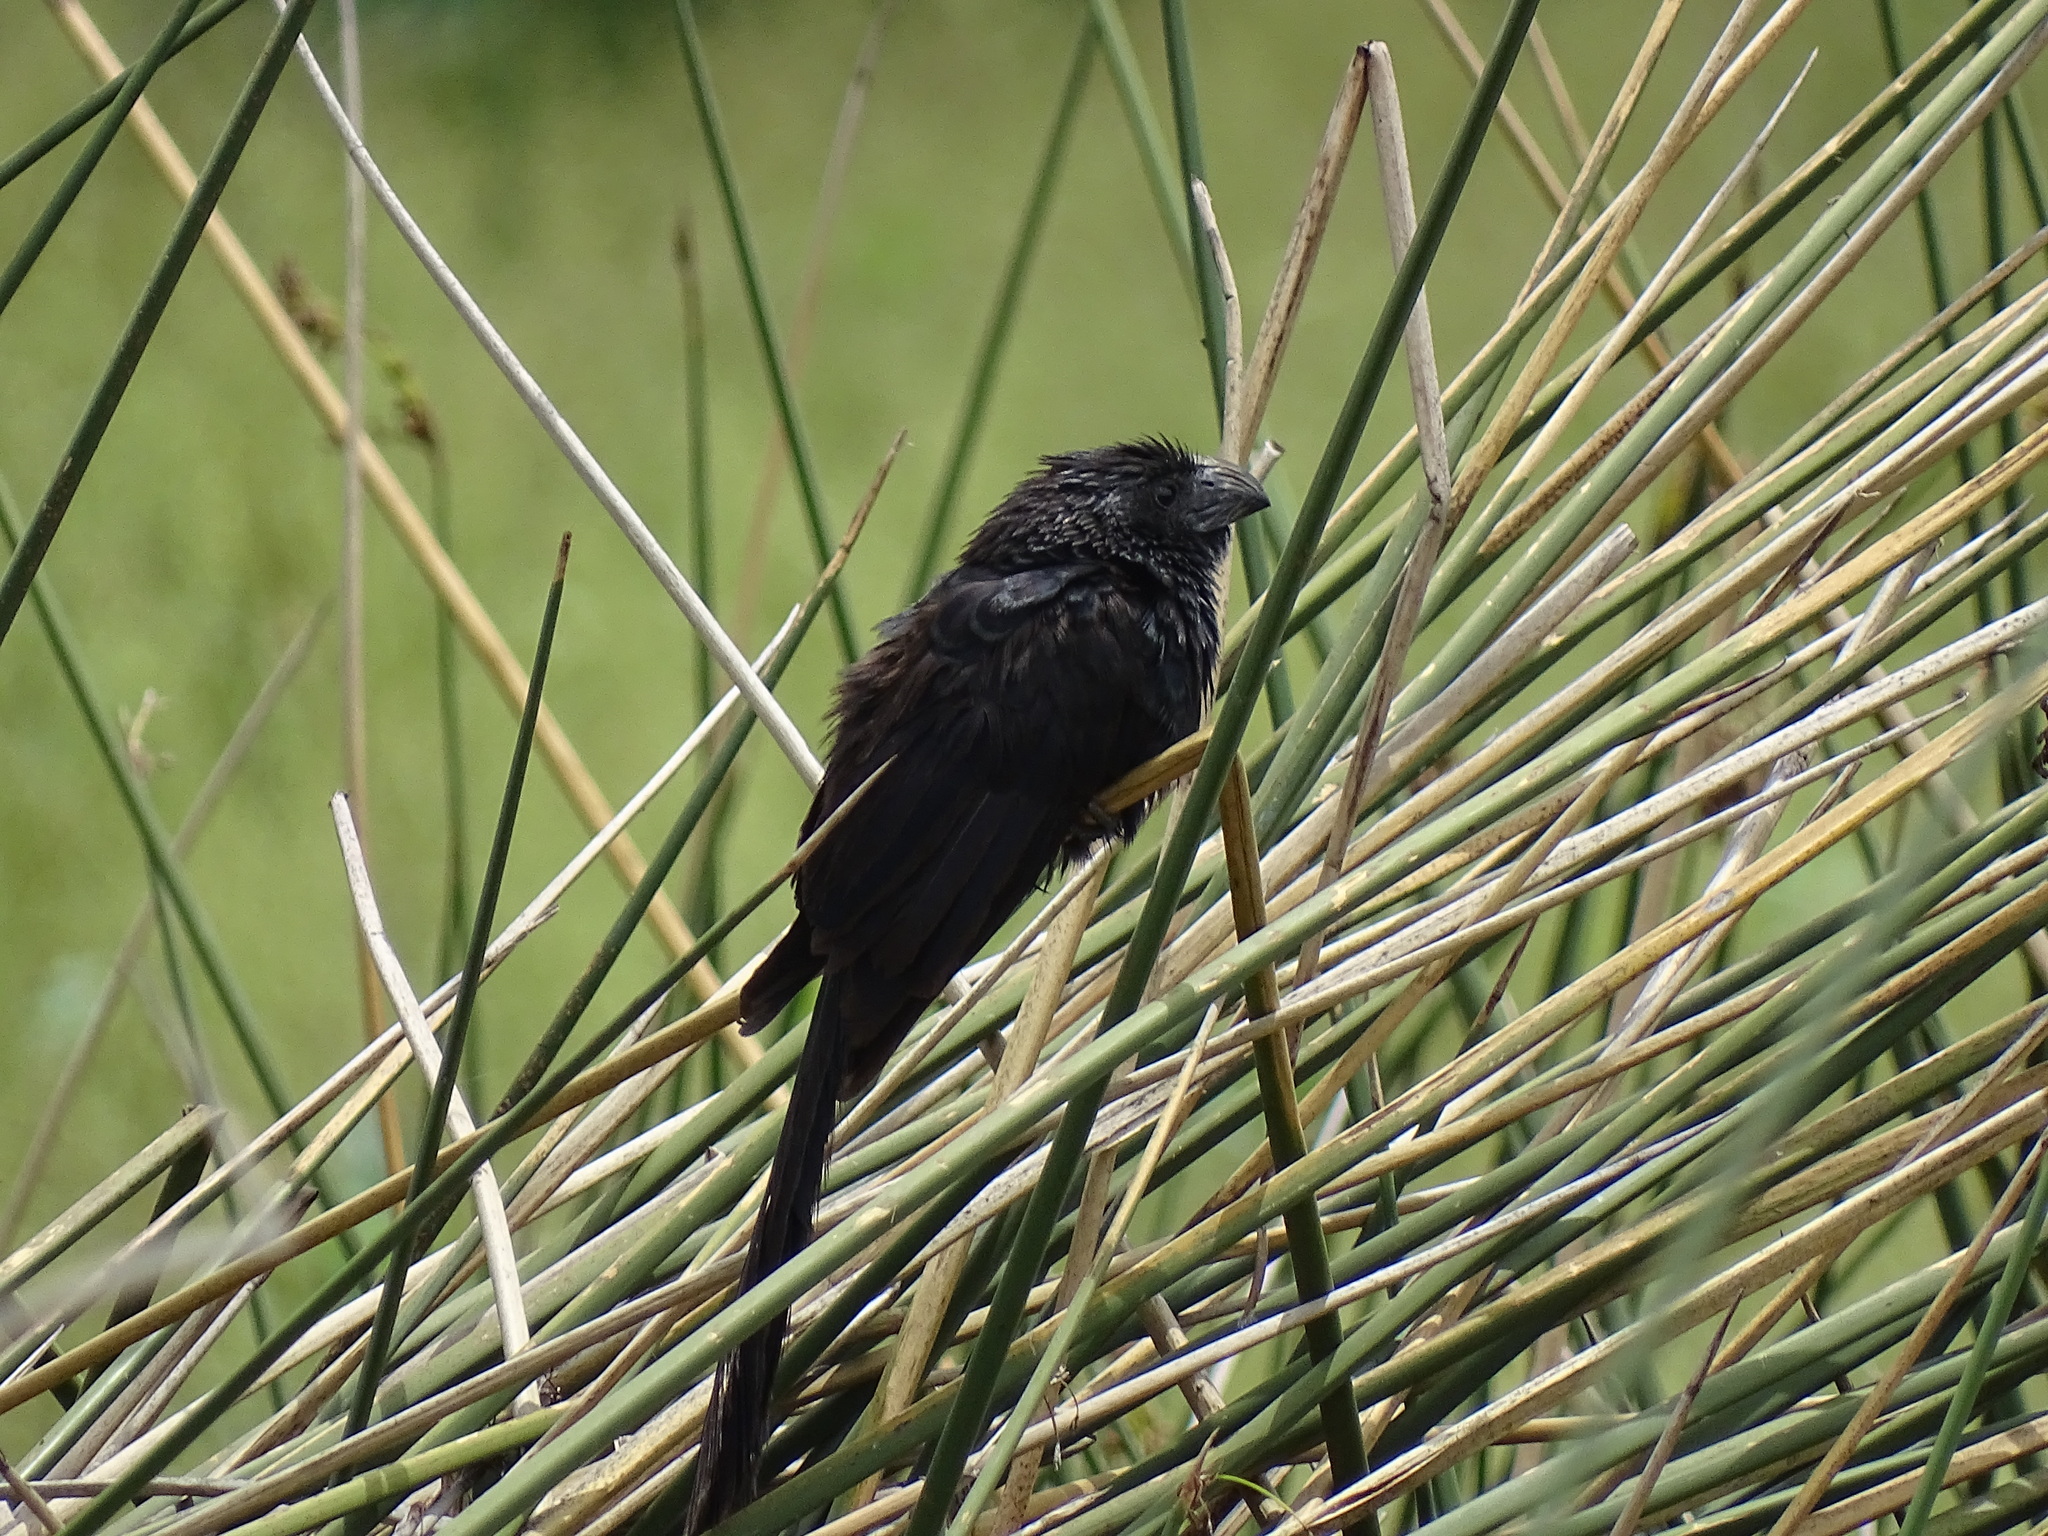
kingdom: Animalia
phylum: Chordata
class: Aves
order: Cuculiformes
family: Cuculidae
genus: Crotophaga
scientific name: Crotophaga sulcirostris
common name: Groove-billed ani
